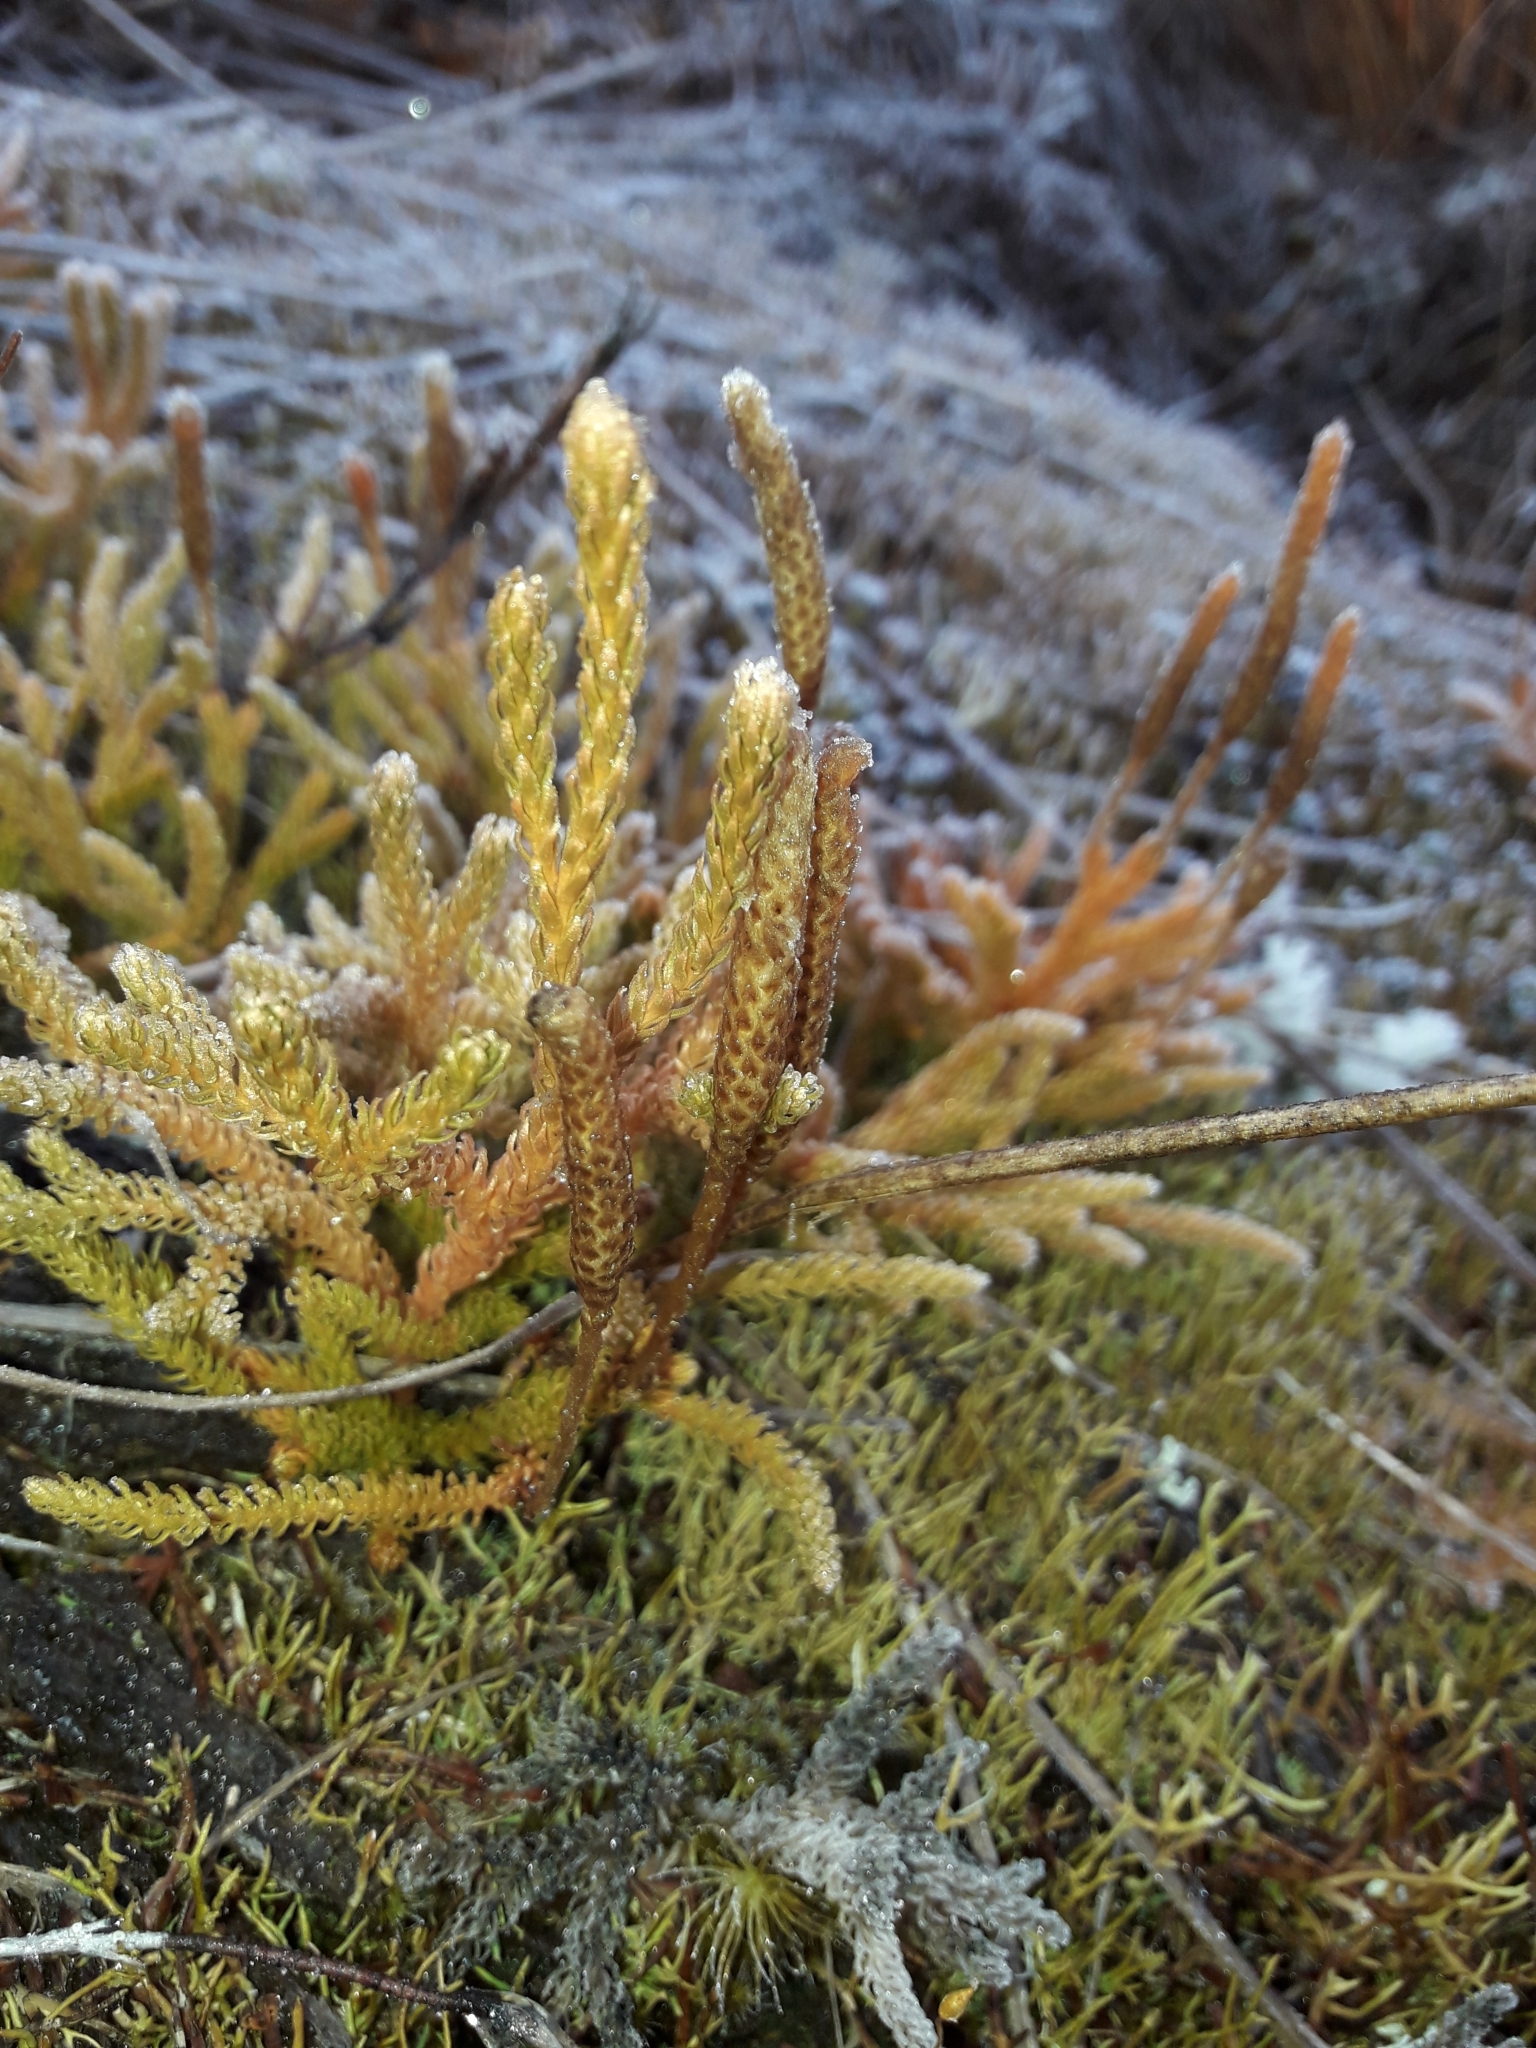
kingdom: Plantae
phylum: Tracheophyta
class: Lycopodiopsida
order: Lycopodiales
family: Lycopodiaceae
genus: Austrolycopodium
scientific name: Austrolycopodium fastigiatum
